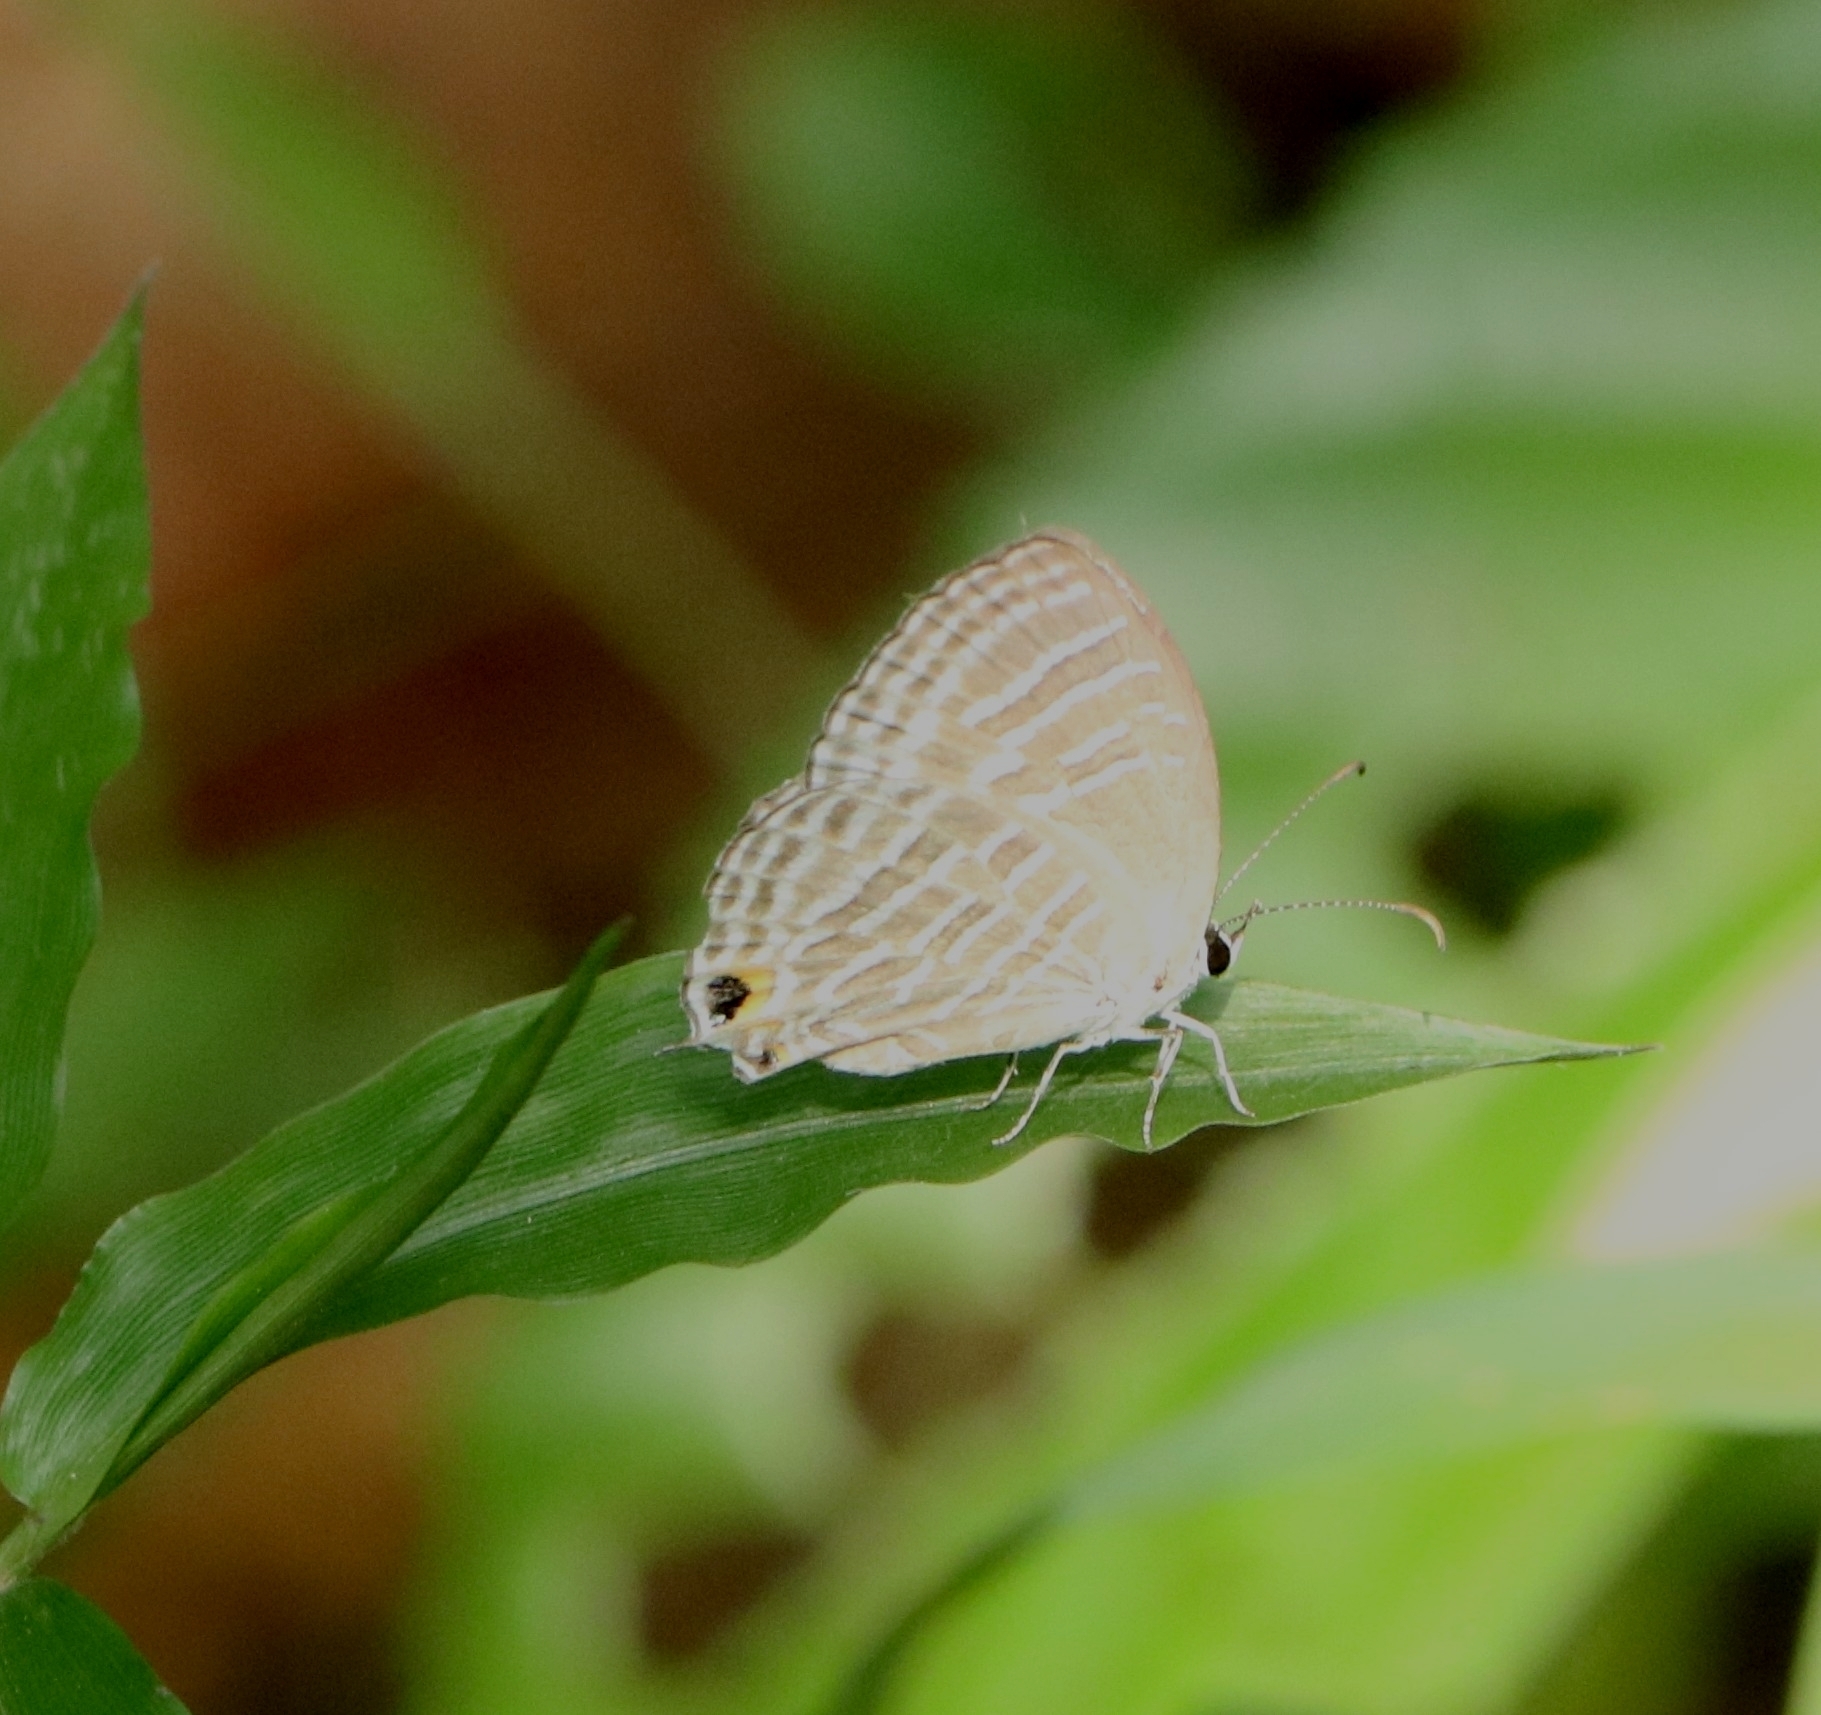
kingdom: Animalia
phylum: Arthropoda
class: Insecta
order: Lepidoptera
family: Lycaenidae
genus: Jamides
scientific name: Jamides celeno
